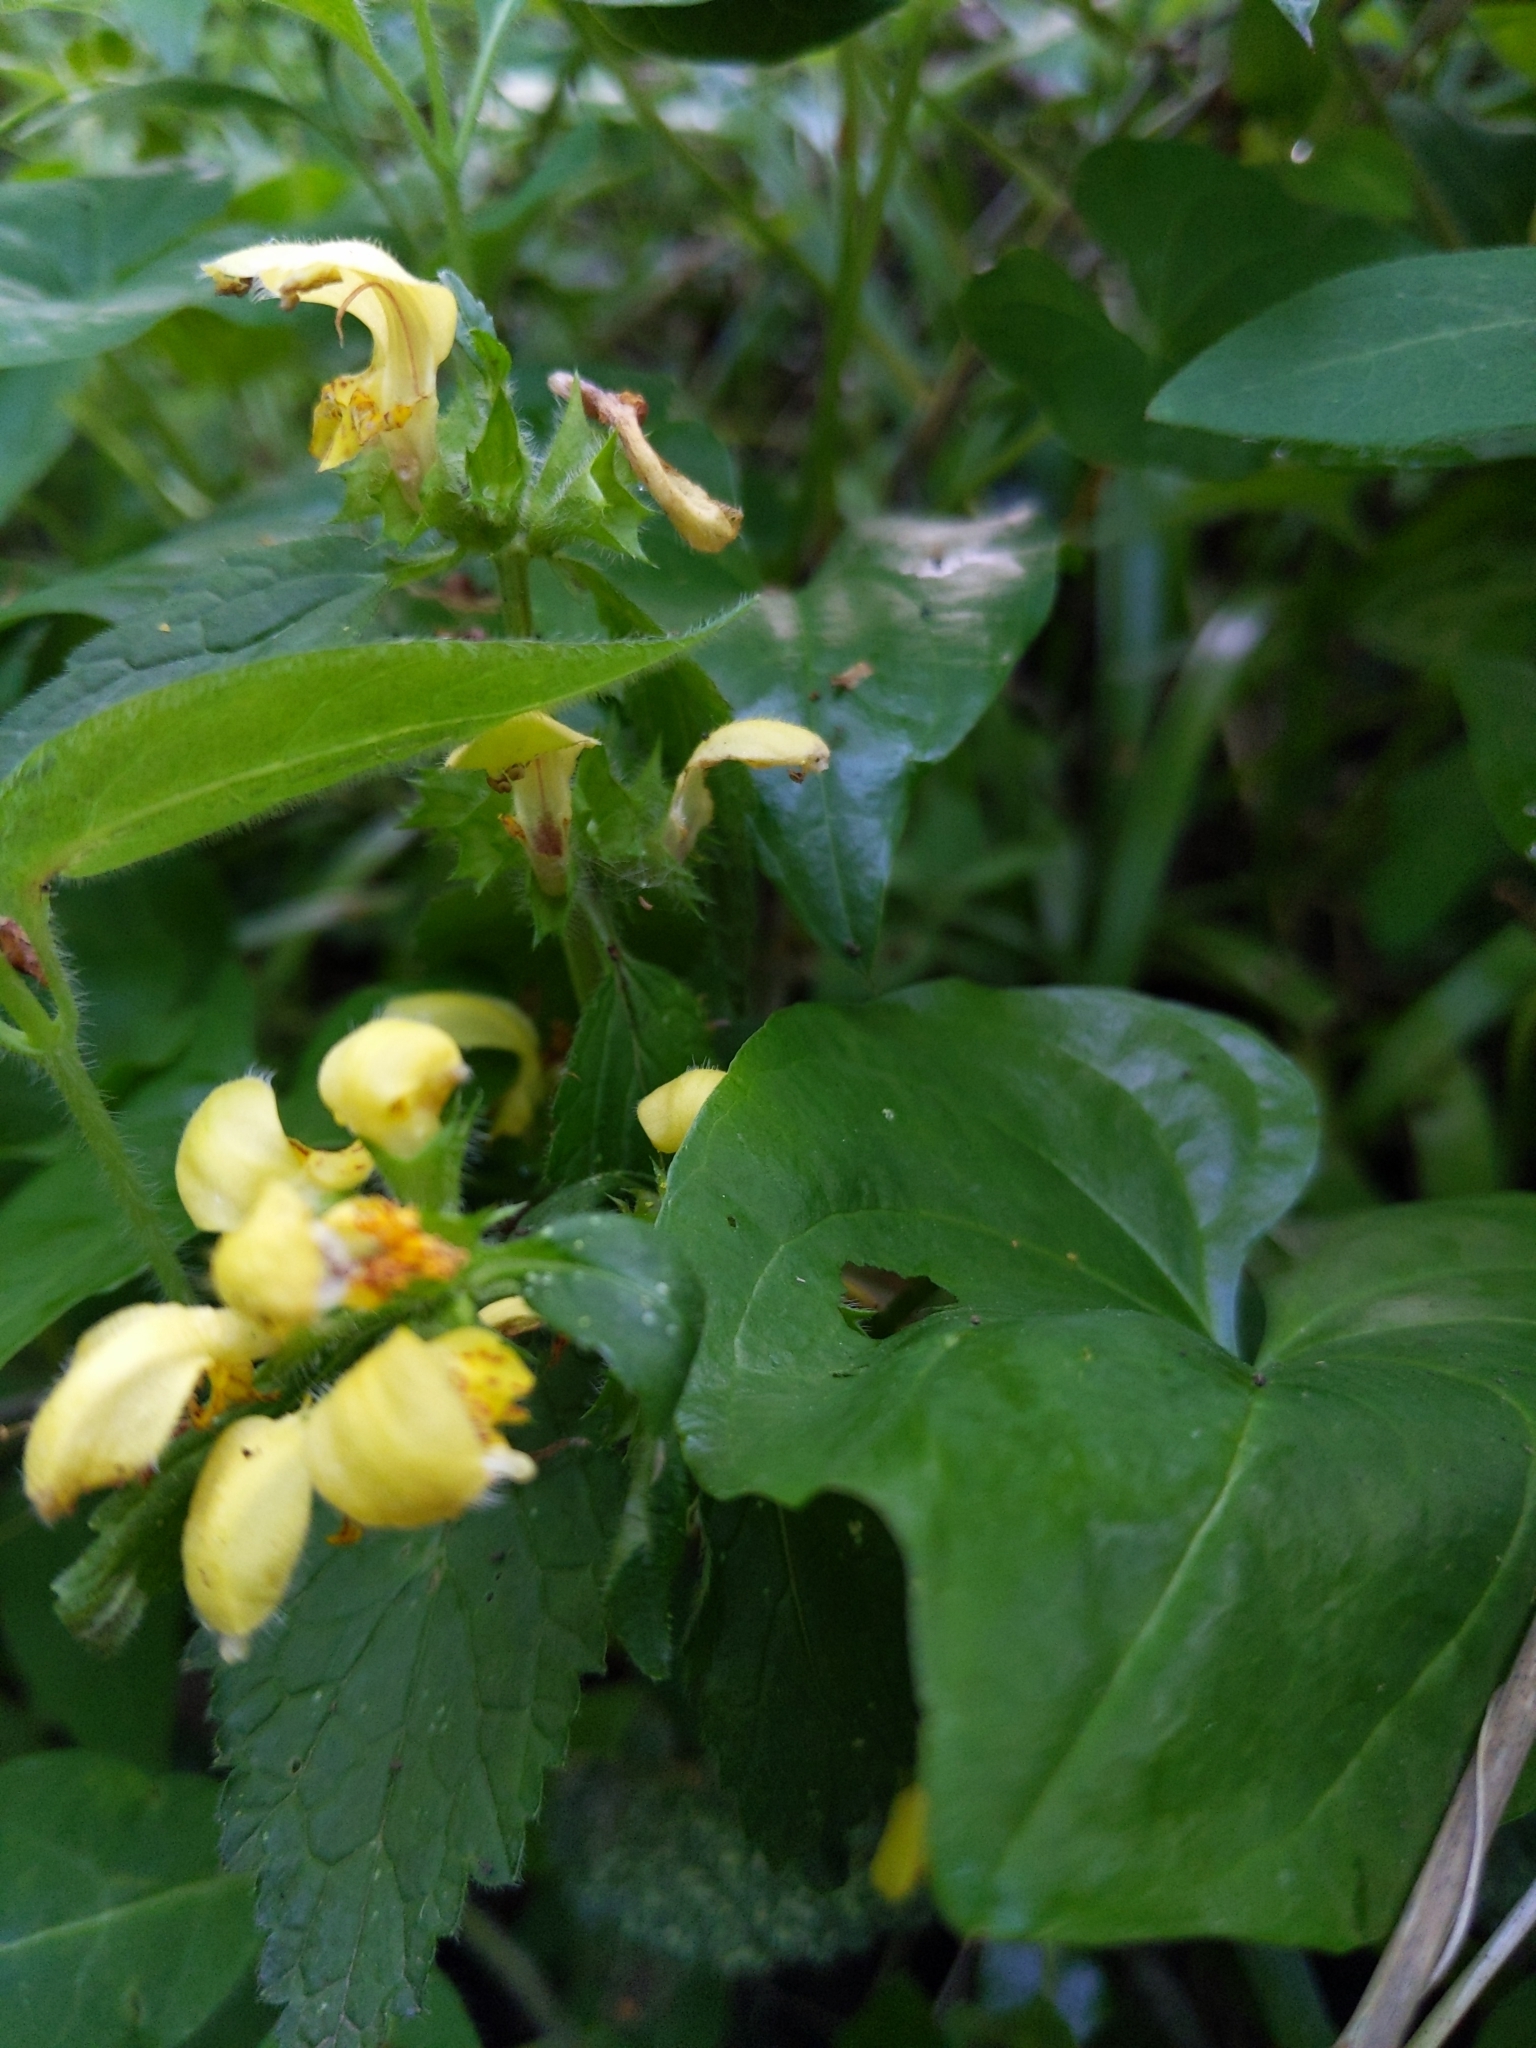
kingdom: Plantae
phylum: Tracheophyta
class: Magnoliopsida
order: Lamiales
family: Lamiaceae
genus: Lamium
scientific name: Lamium galeobdolon
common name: Yellow archangel
